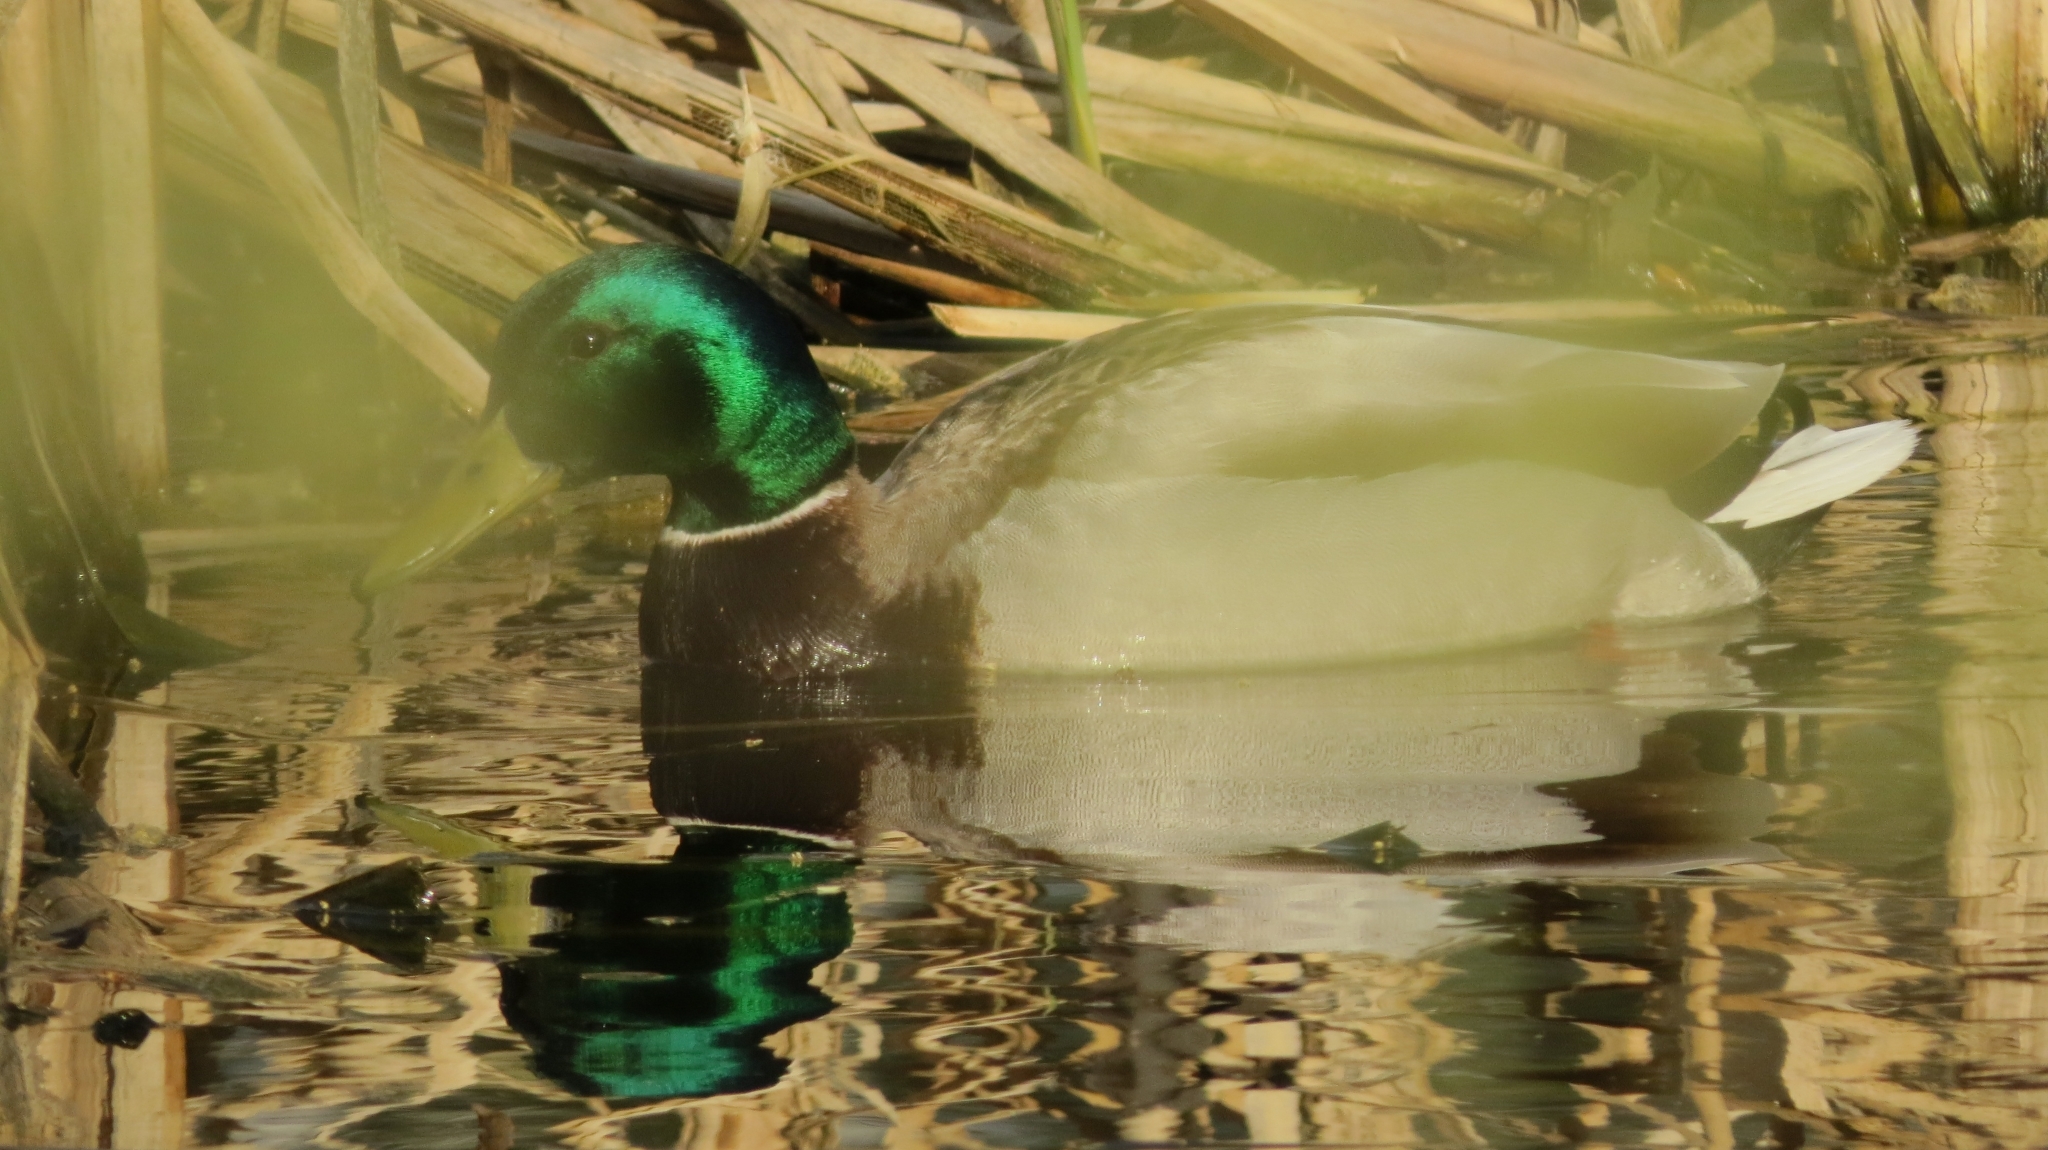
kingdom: Animalia
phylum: Chordata
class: Aves
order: Anseriformes
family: Anatidae
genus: Anas
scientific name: Anas platyrhynchos
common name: Mallard
